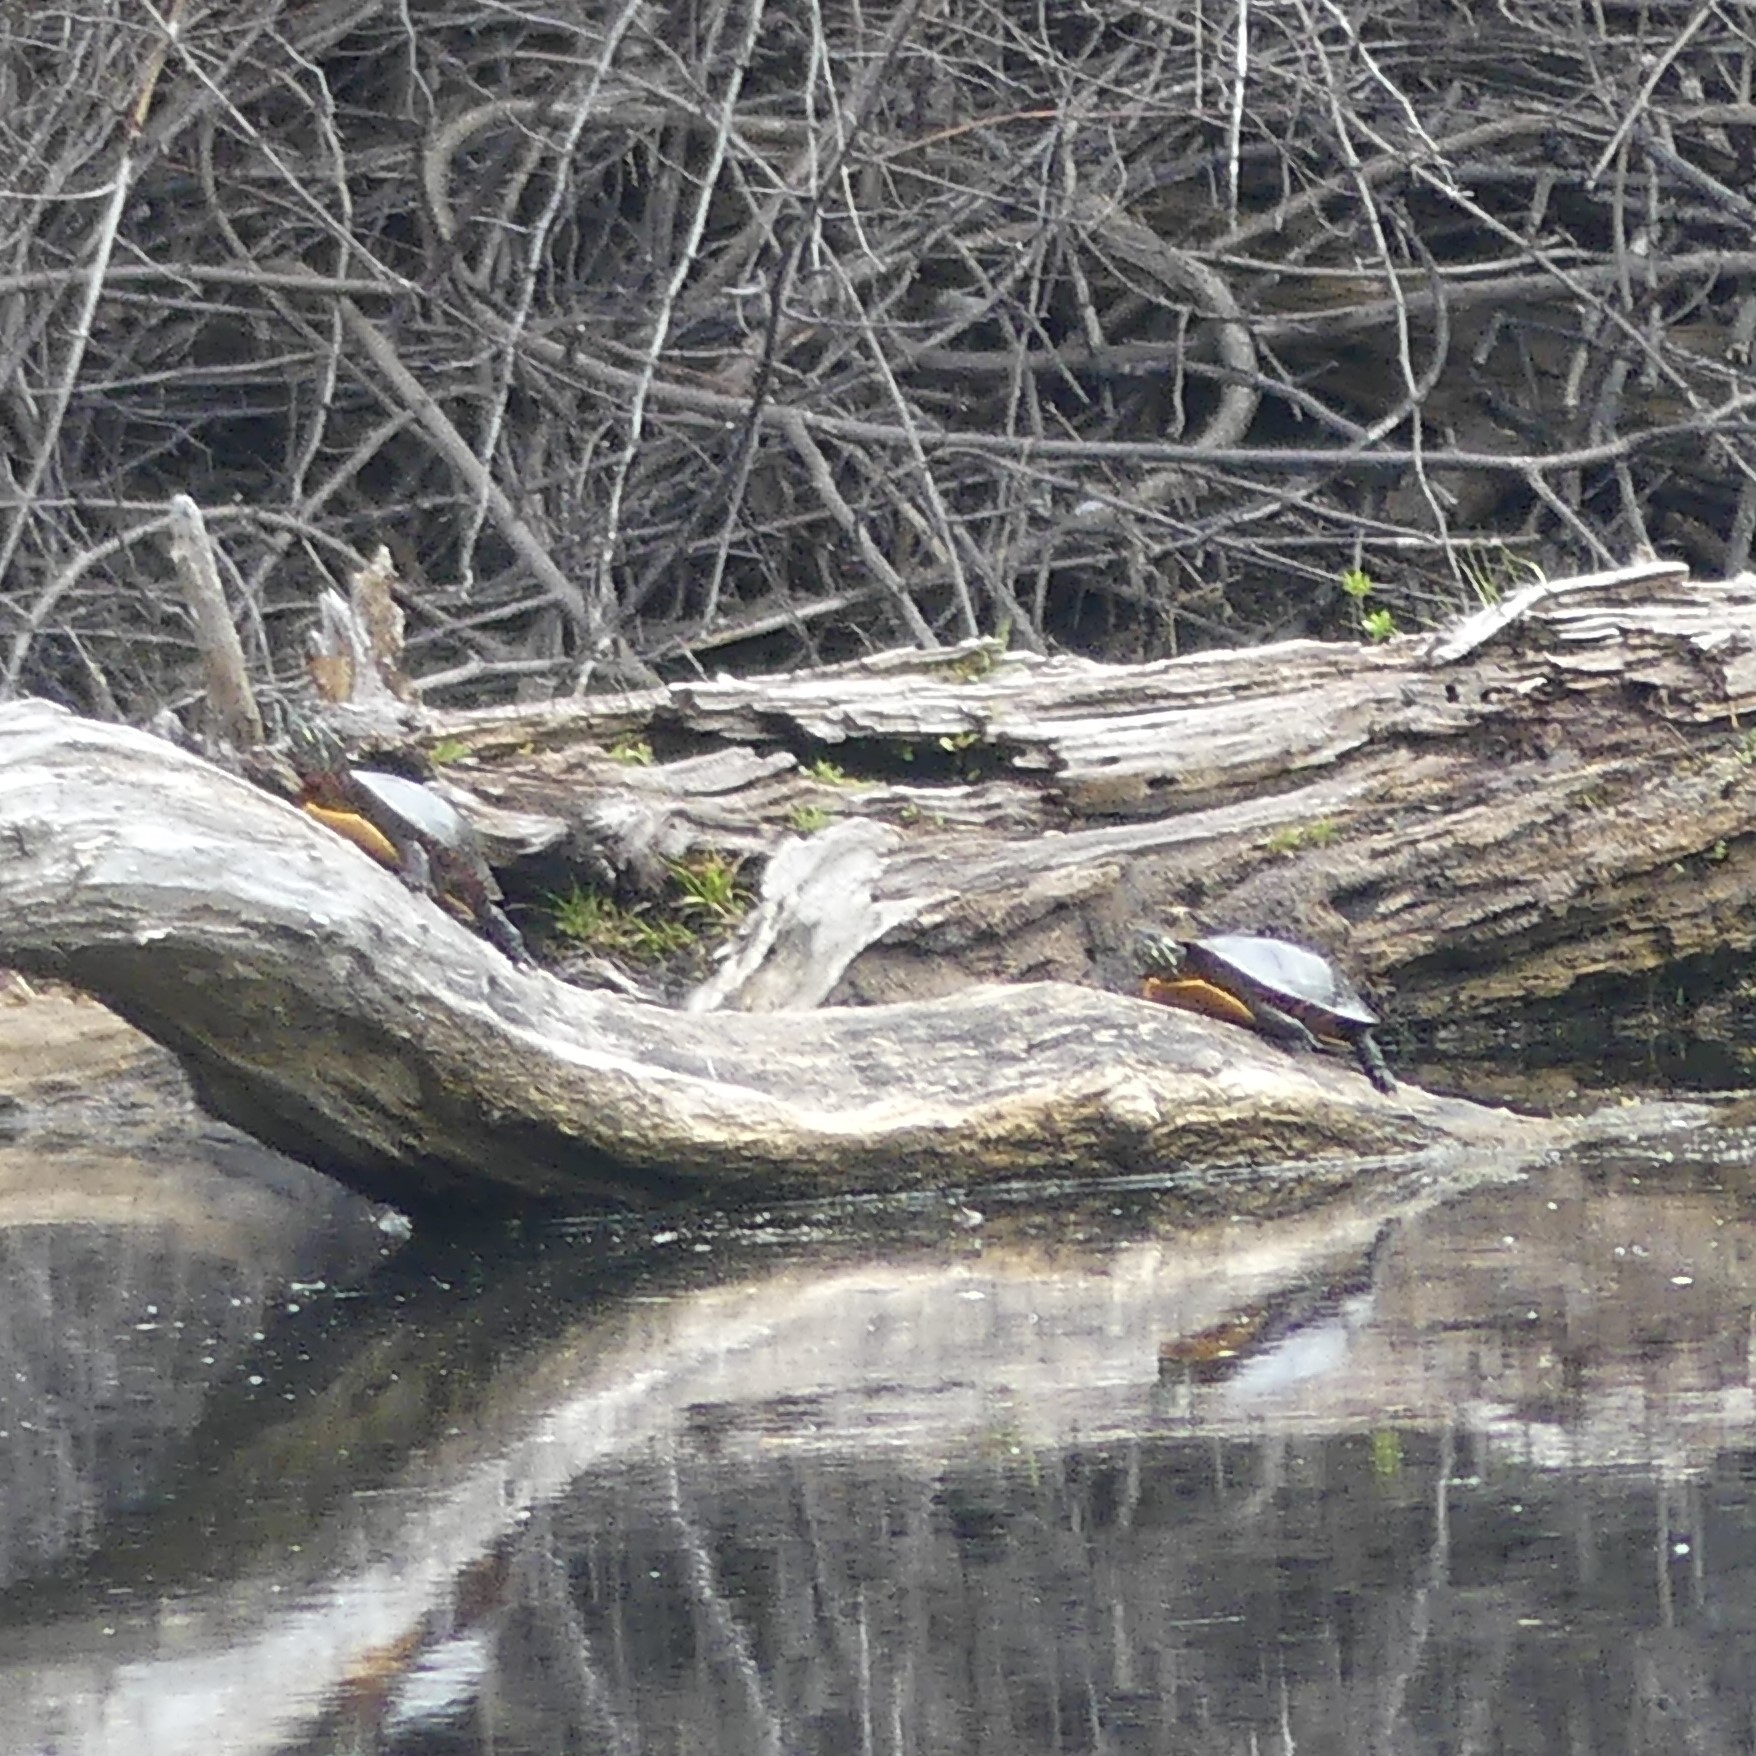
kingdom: Animalia
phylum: Chordata
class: Testudines
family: Emydidae
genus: Chrysemys
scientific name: Chrysemys picta
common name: Painted turtle
